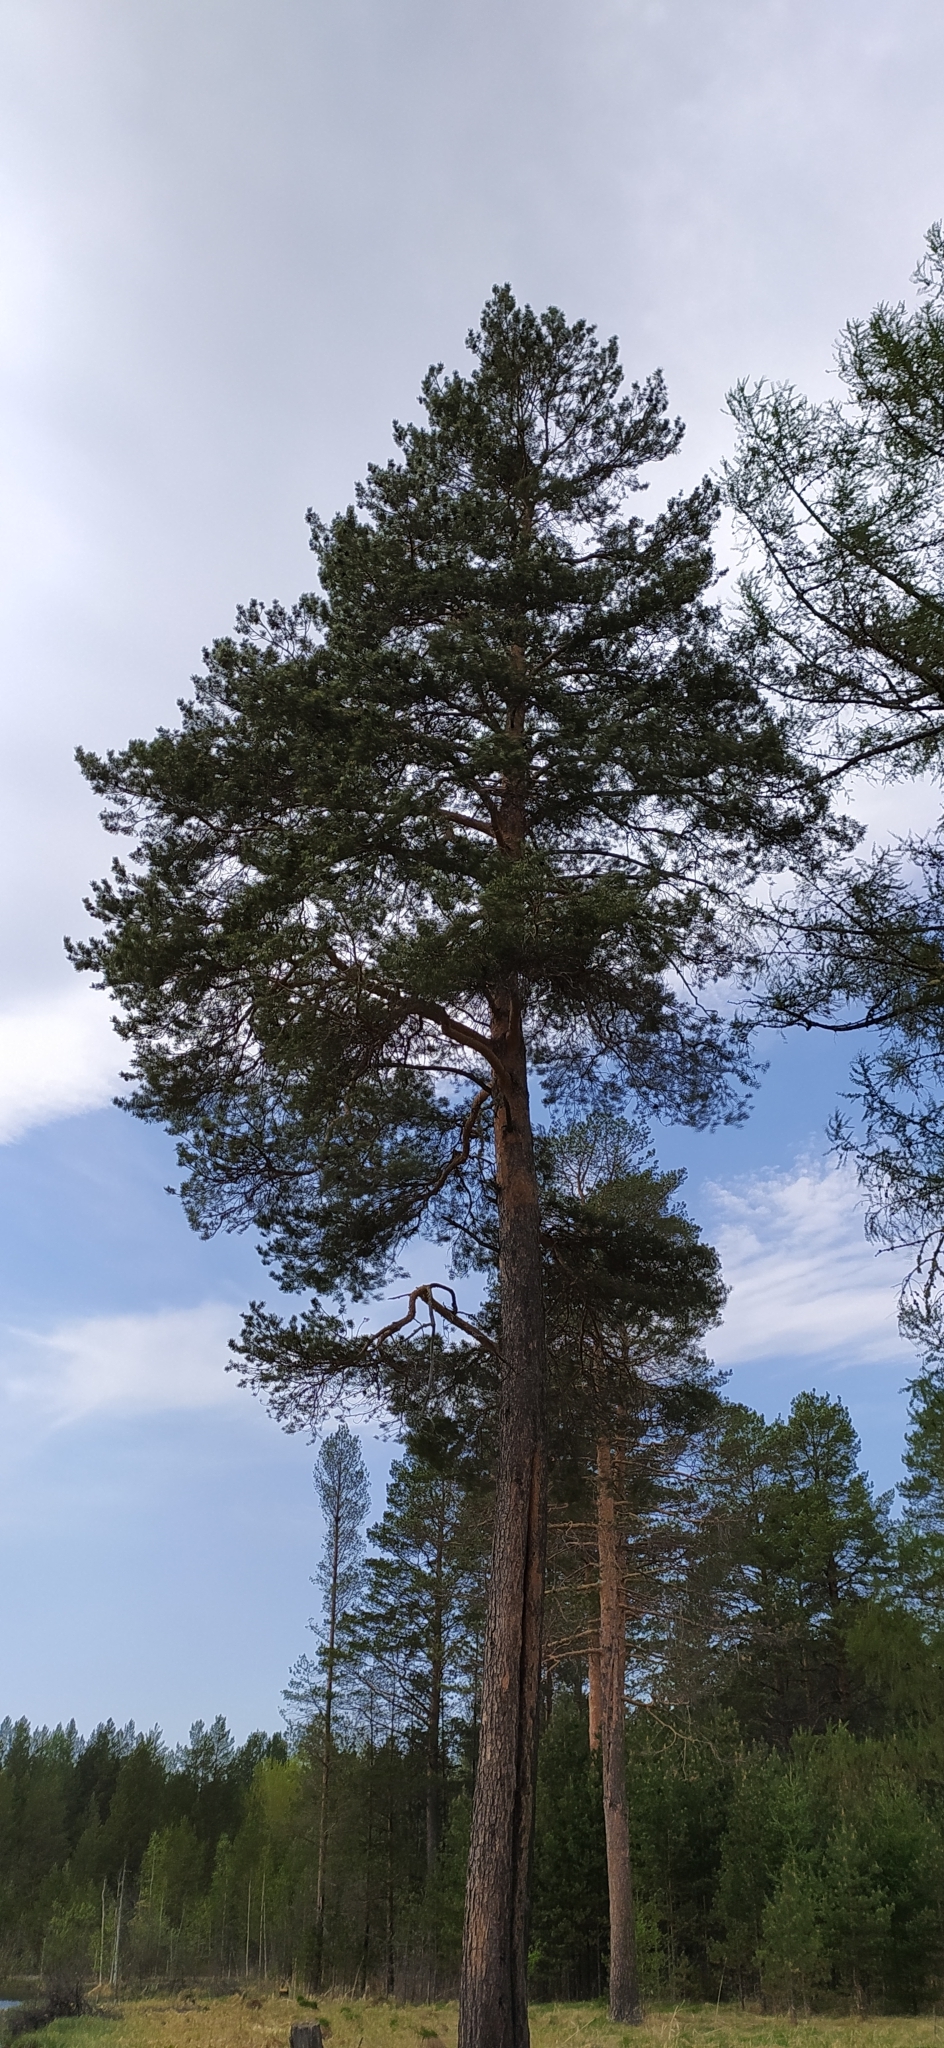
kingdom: Plantae
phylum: Tracheophyta
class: Pinopsida
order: Pinales
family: Pinaceae
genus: Pinus
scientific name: Pinus sylvestris
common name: Scots pine
